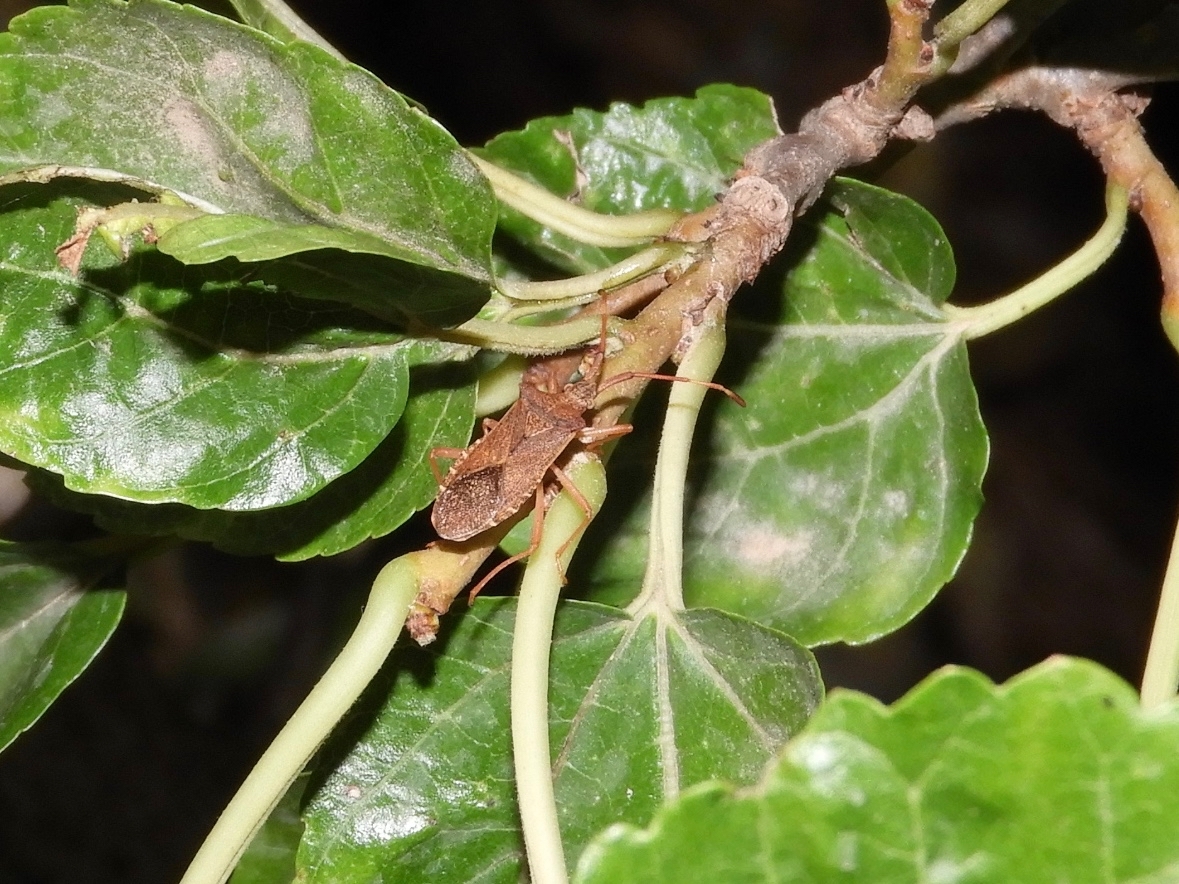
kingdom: Animalia
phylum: Arthropoda
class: Insecta
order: Hemiptera
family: Coreidae
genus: Gonocerus
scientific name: Gonocerus acuteangulatus
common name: Box bug
